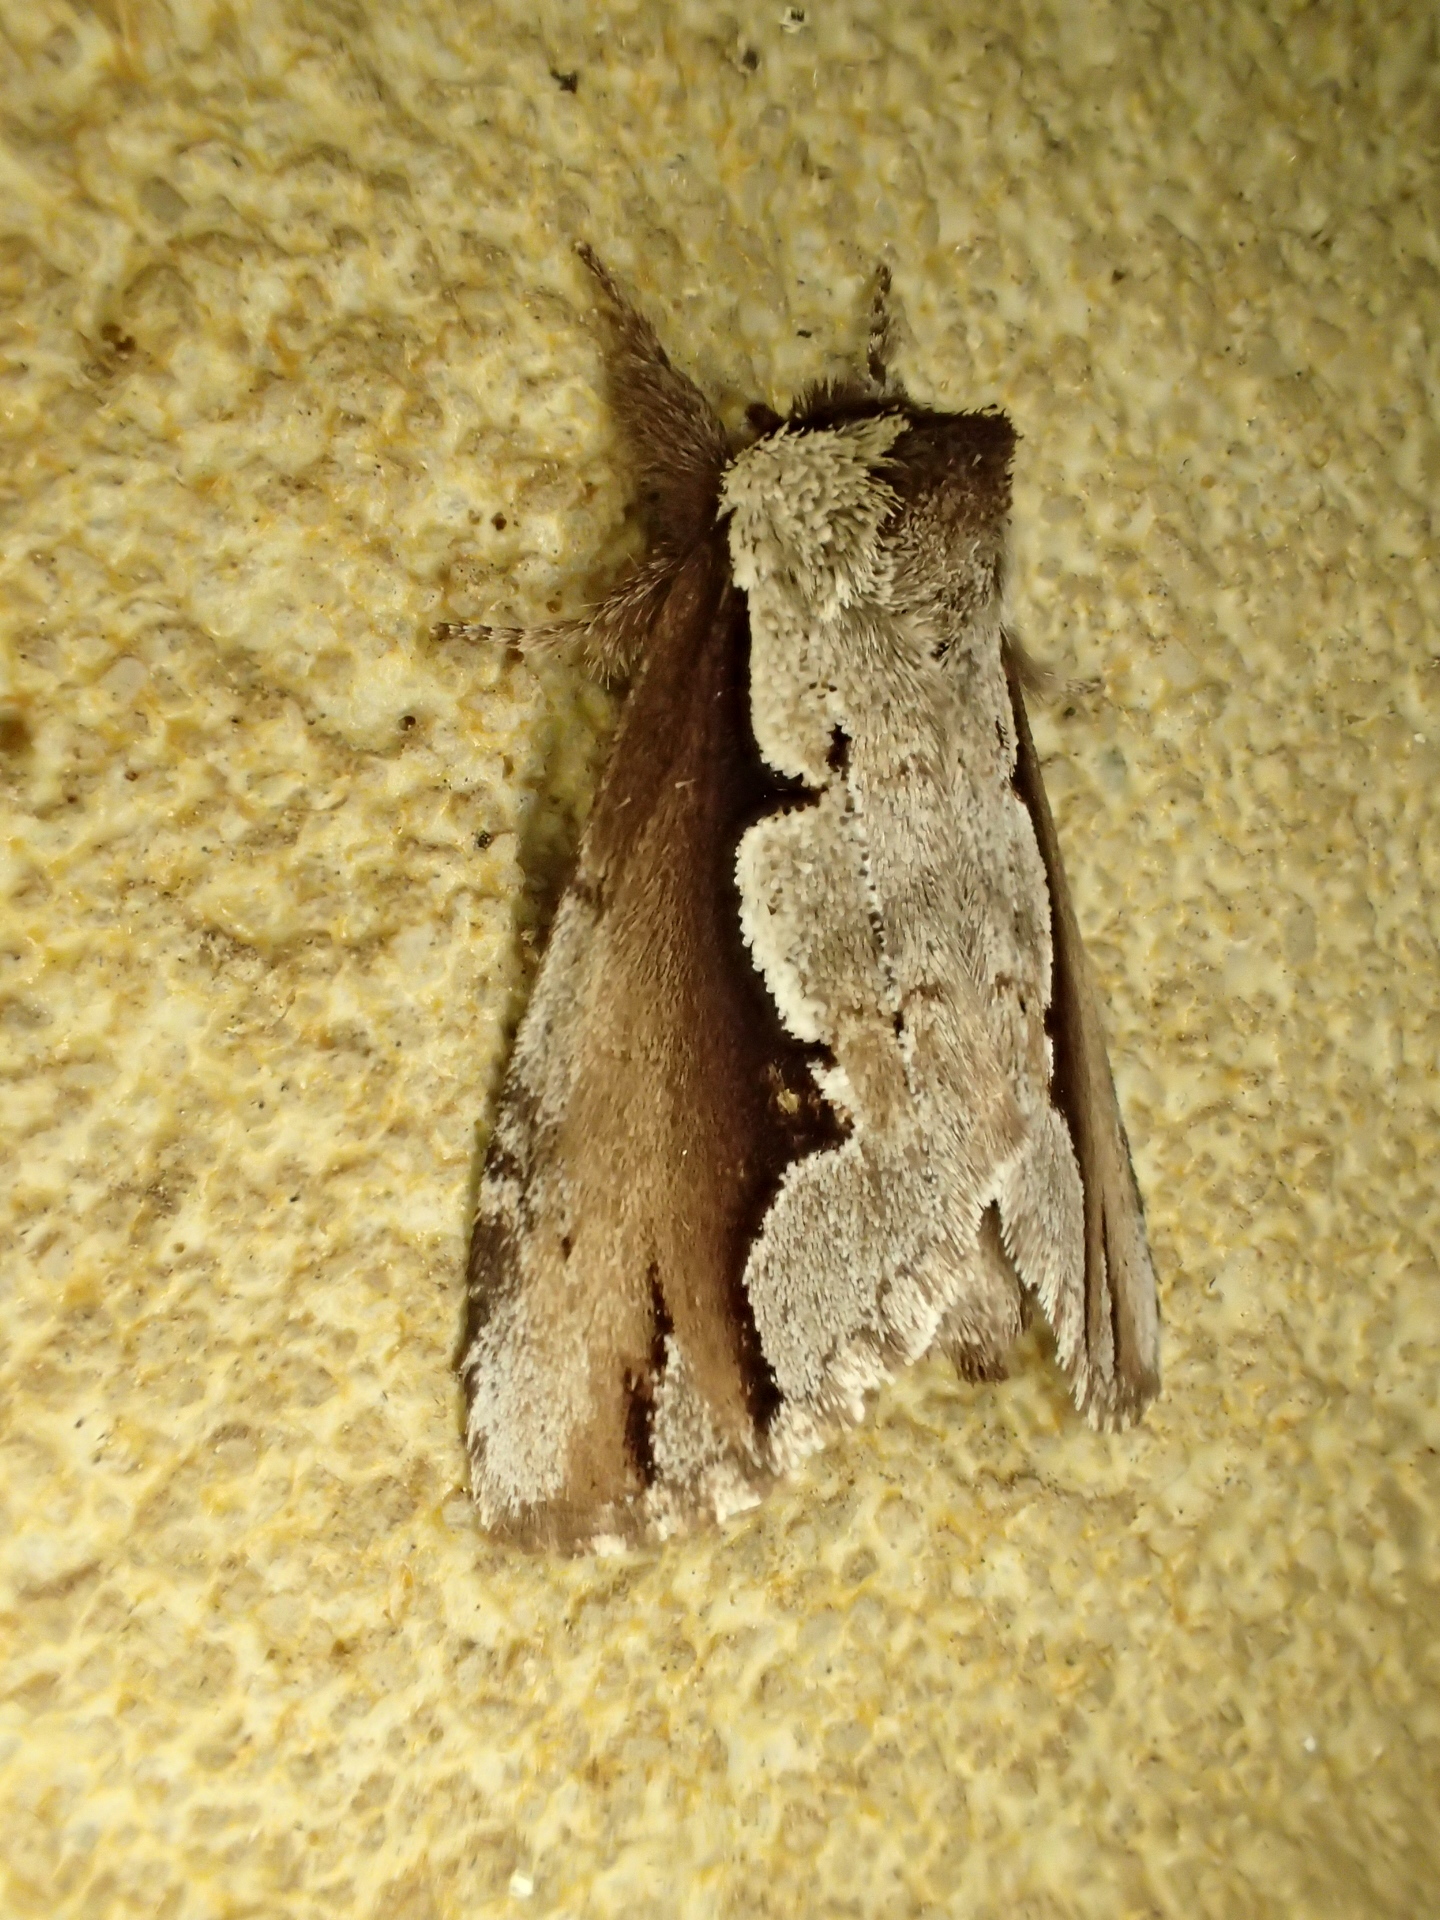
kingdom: Animalia
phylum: Arthropoda
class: Insecta
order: Lepidoptera
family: Notodontidae
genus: Nerice
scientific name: Nerice bidentata
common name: Double-toothed prominent
